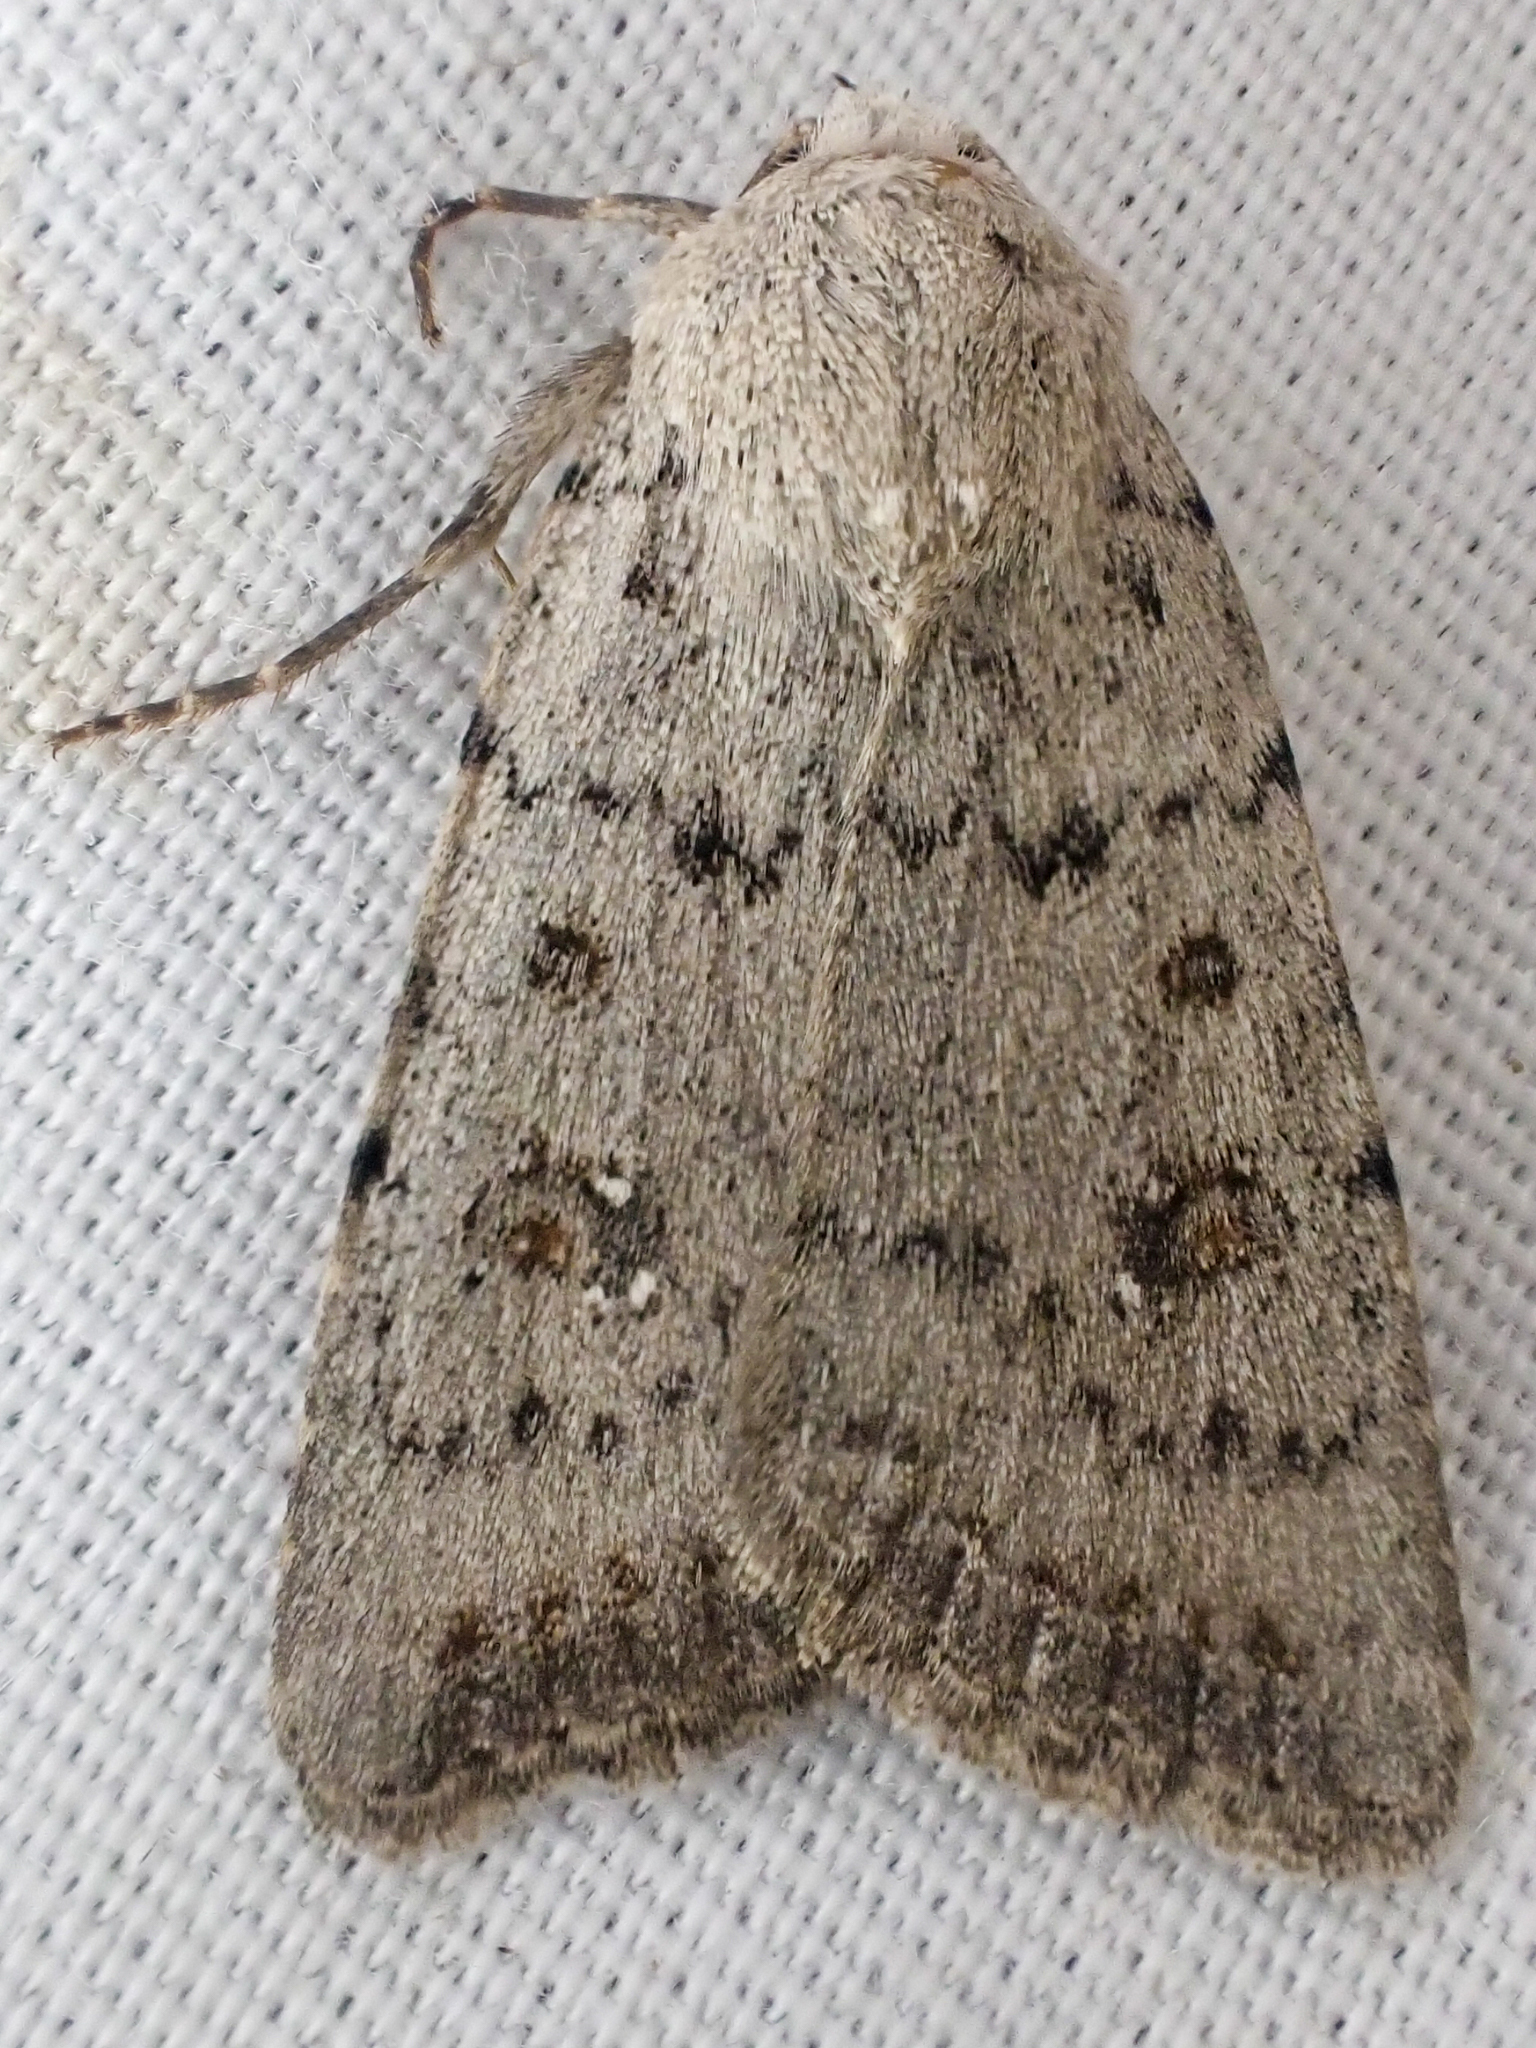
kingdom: Animalia
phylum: Arthropoda
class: Insecta
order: Lepidoptera
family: Noctuidae
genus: Caradrina
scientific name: Caradrina montana
